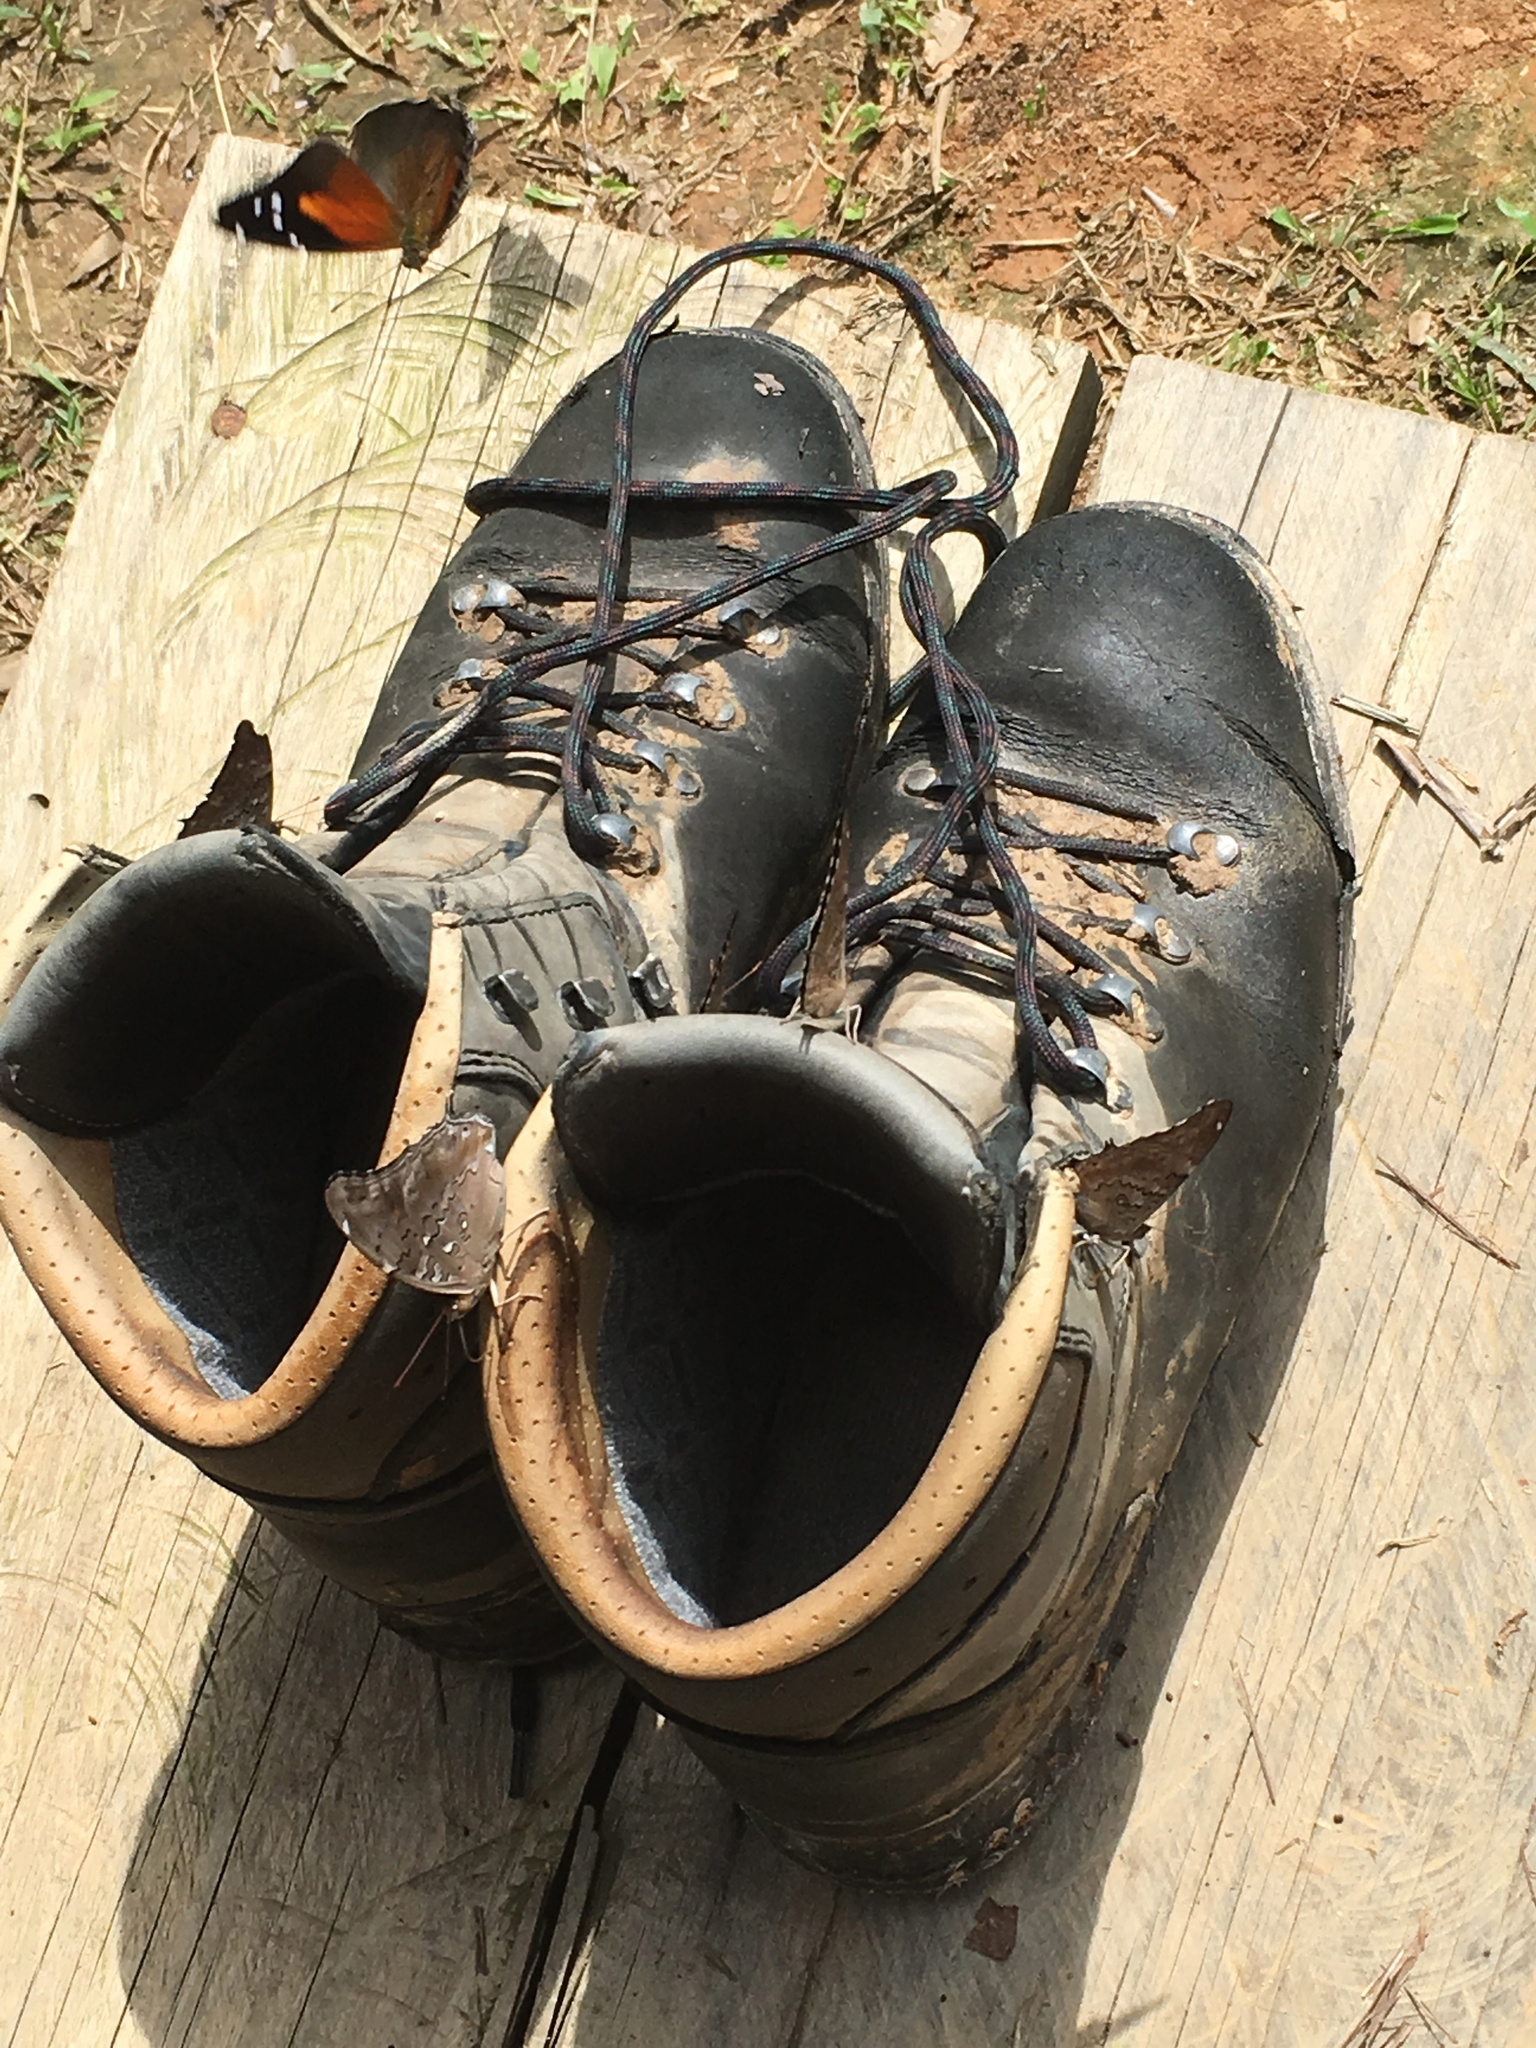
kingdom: Animalia
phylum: Arthropoda
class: Insecta
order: Lepidoptera
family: Nymphalidae
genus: Coea
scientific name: Coea acheronta
